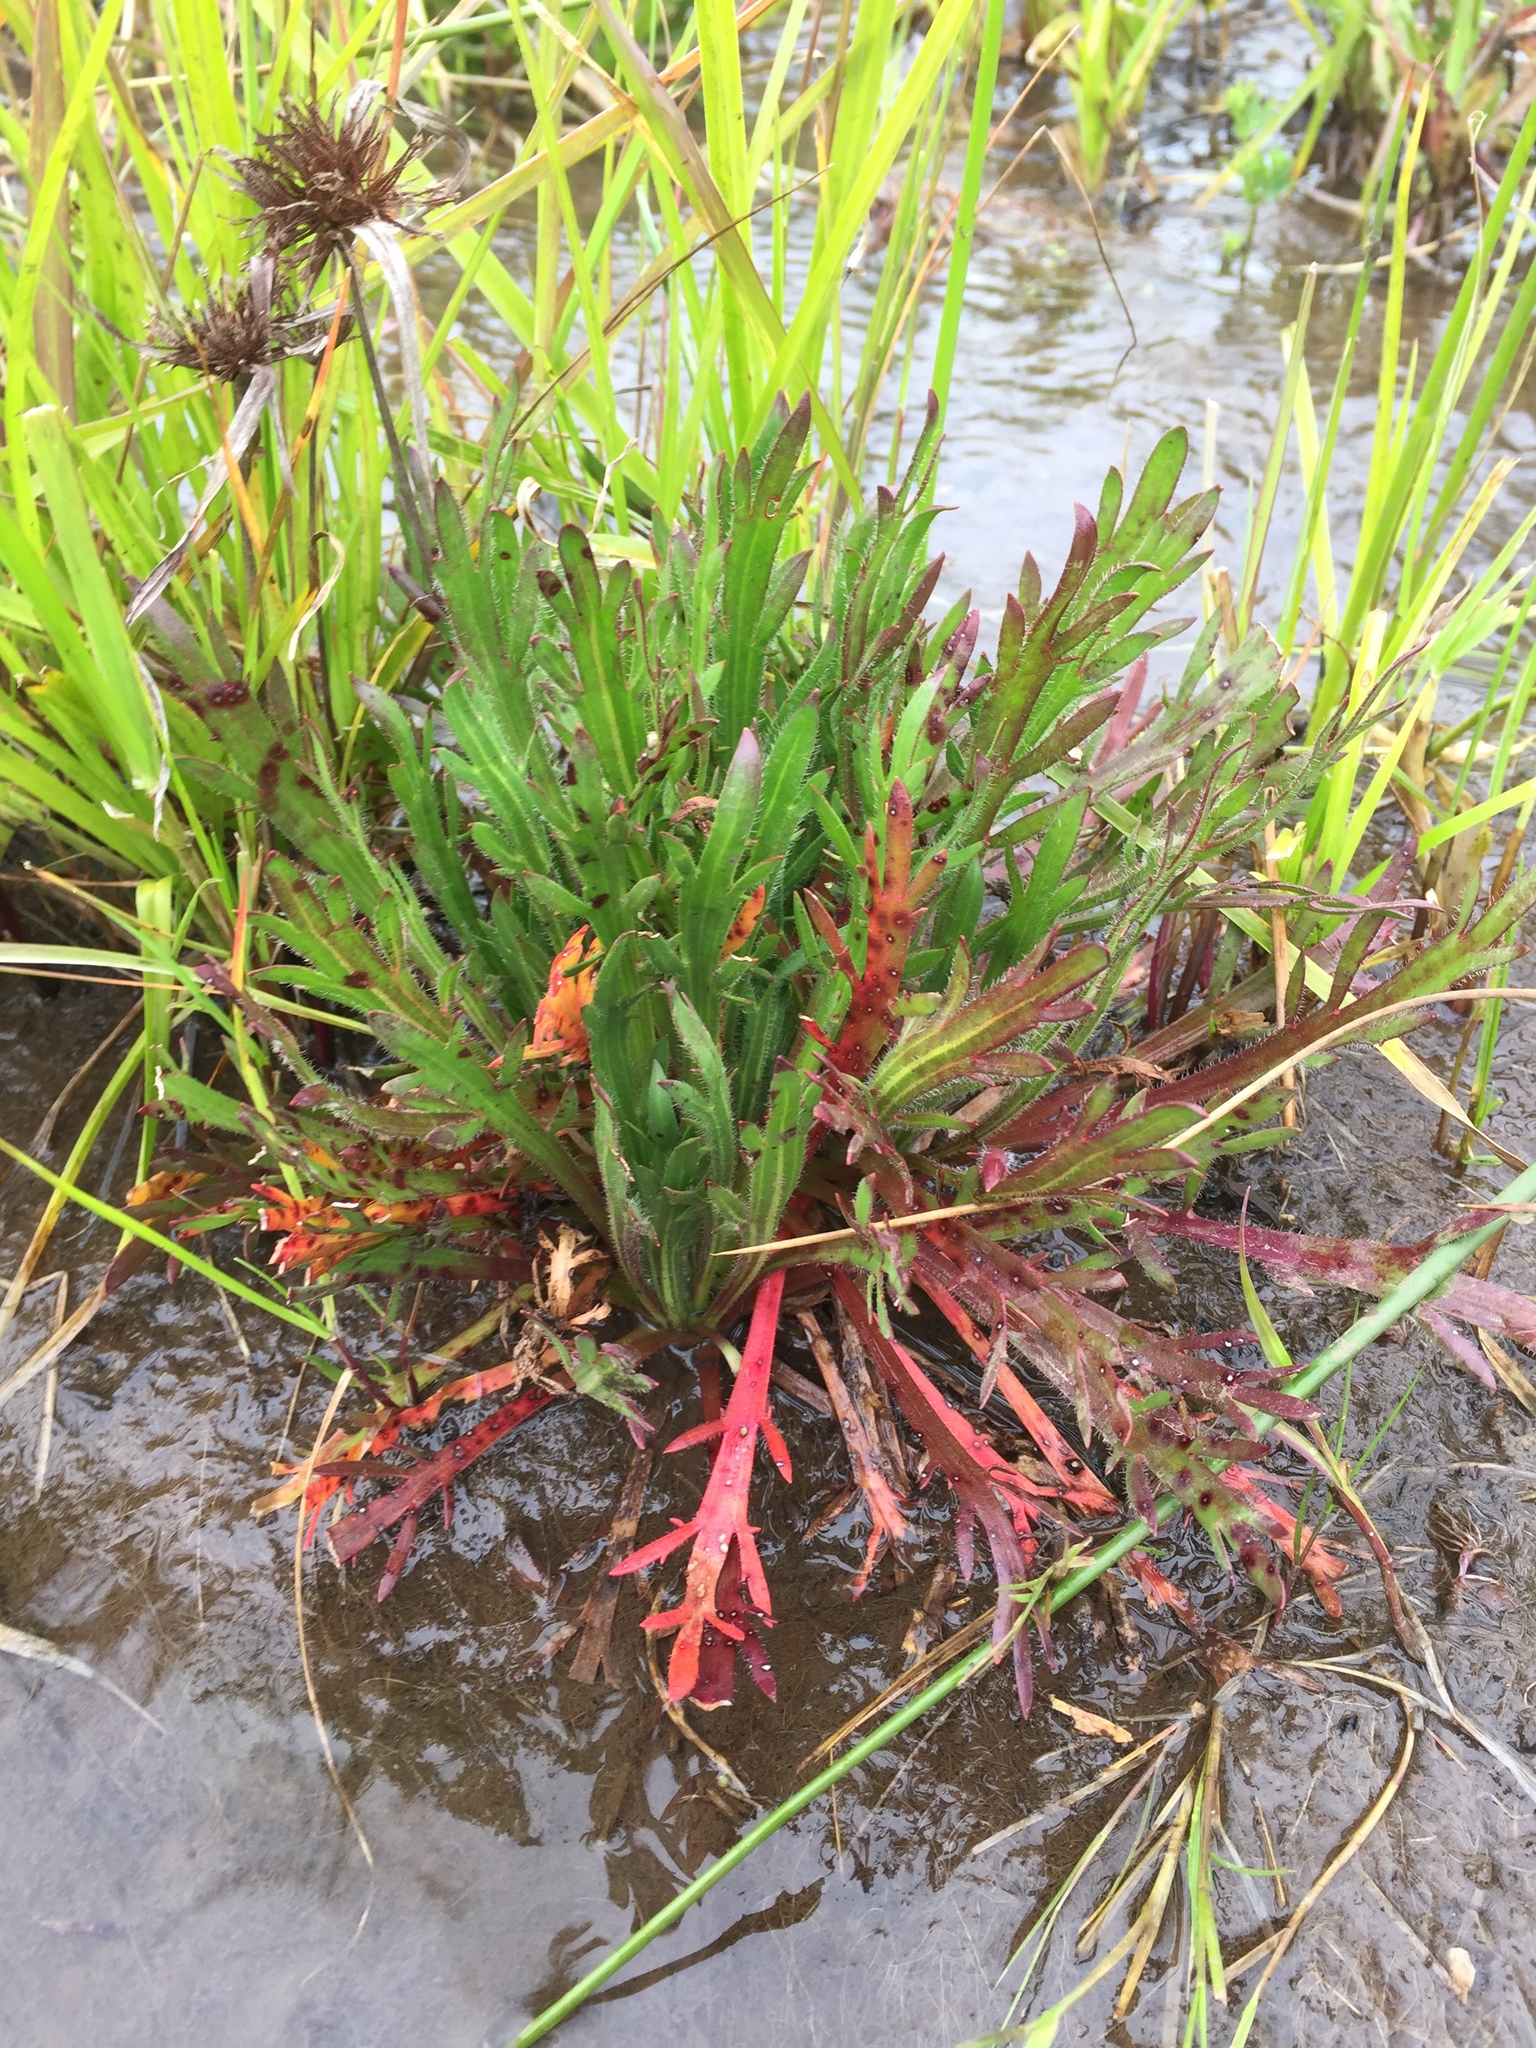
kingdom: Plantae
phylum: Tracheophyta
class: Magnoliopsida
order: Lamiales
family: Plantaginaceae
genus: Plantago
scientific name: Plantago coronopus
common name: Buck's-horn plantain
